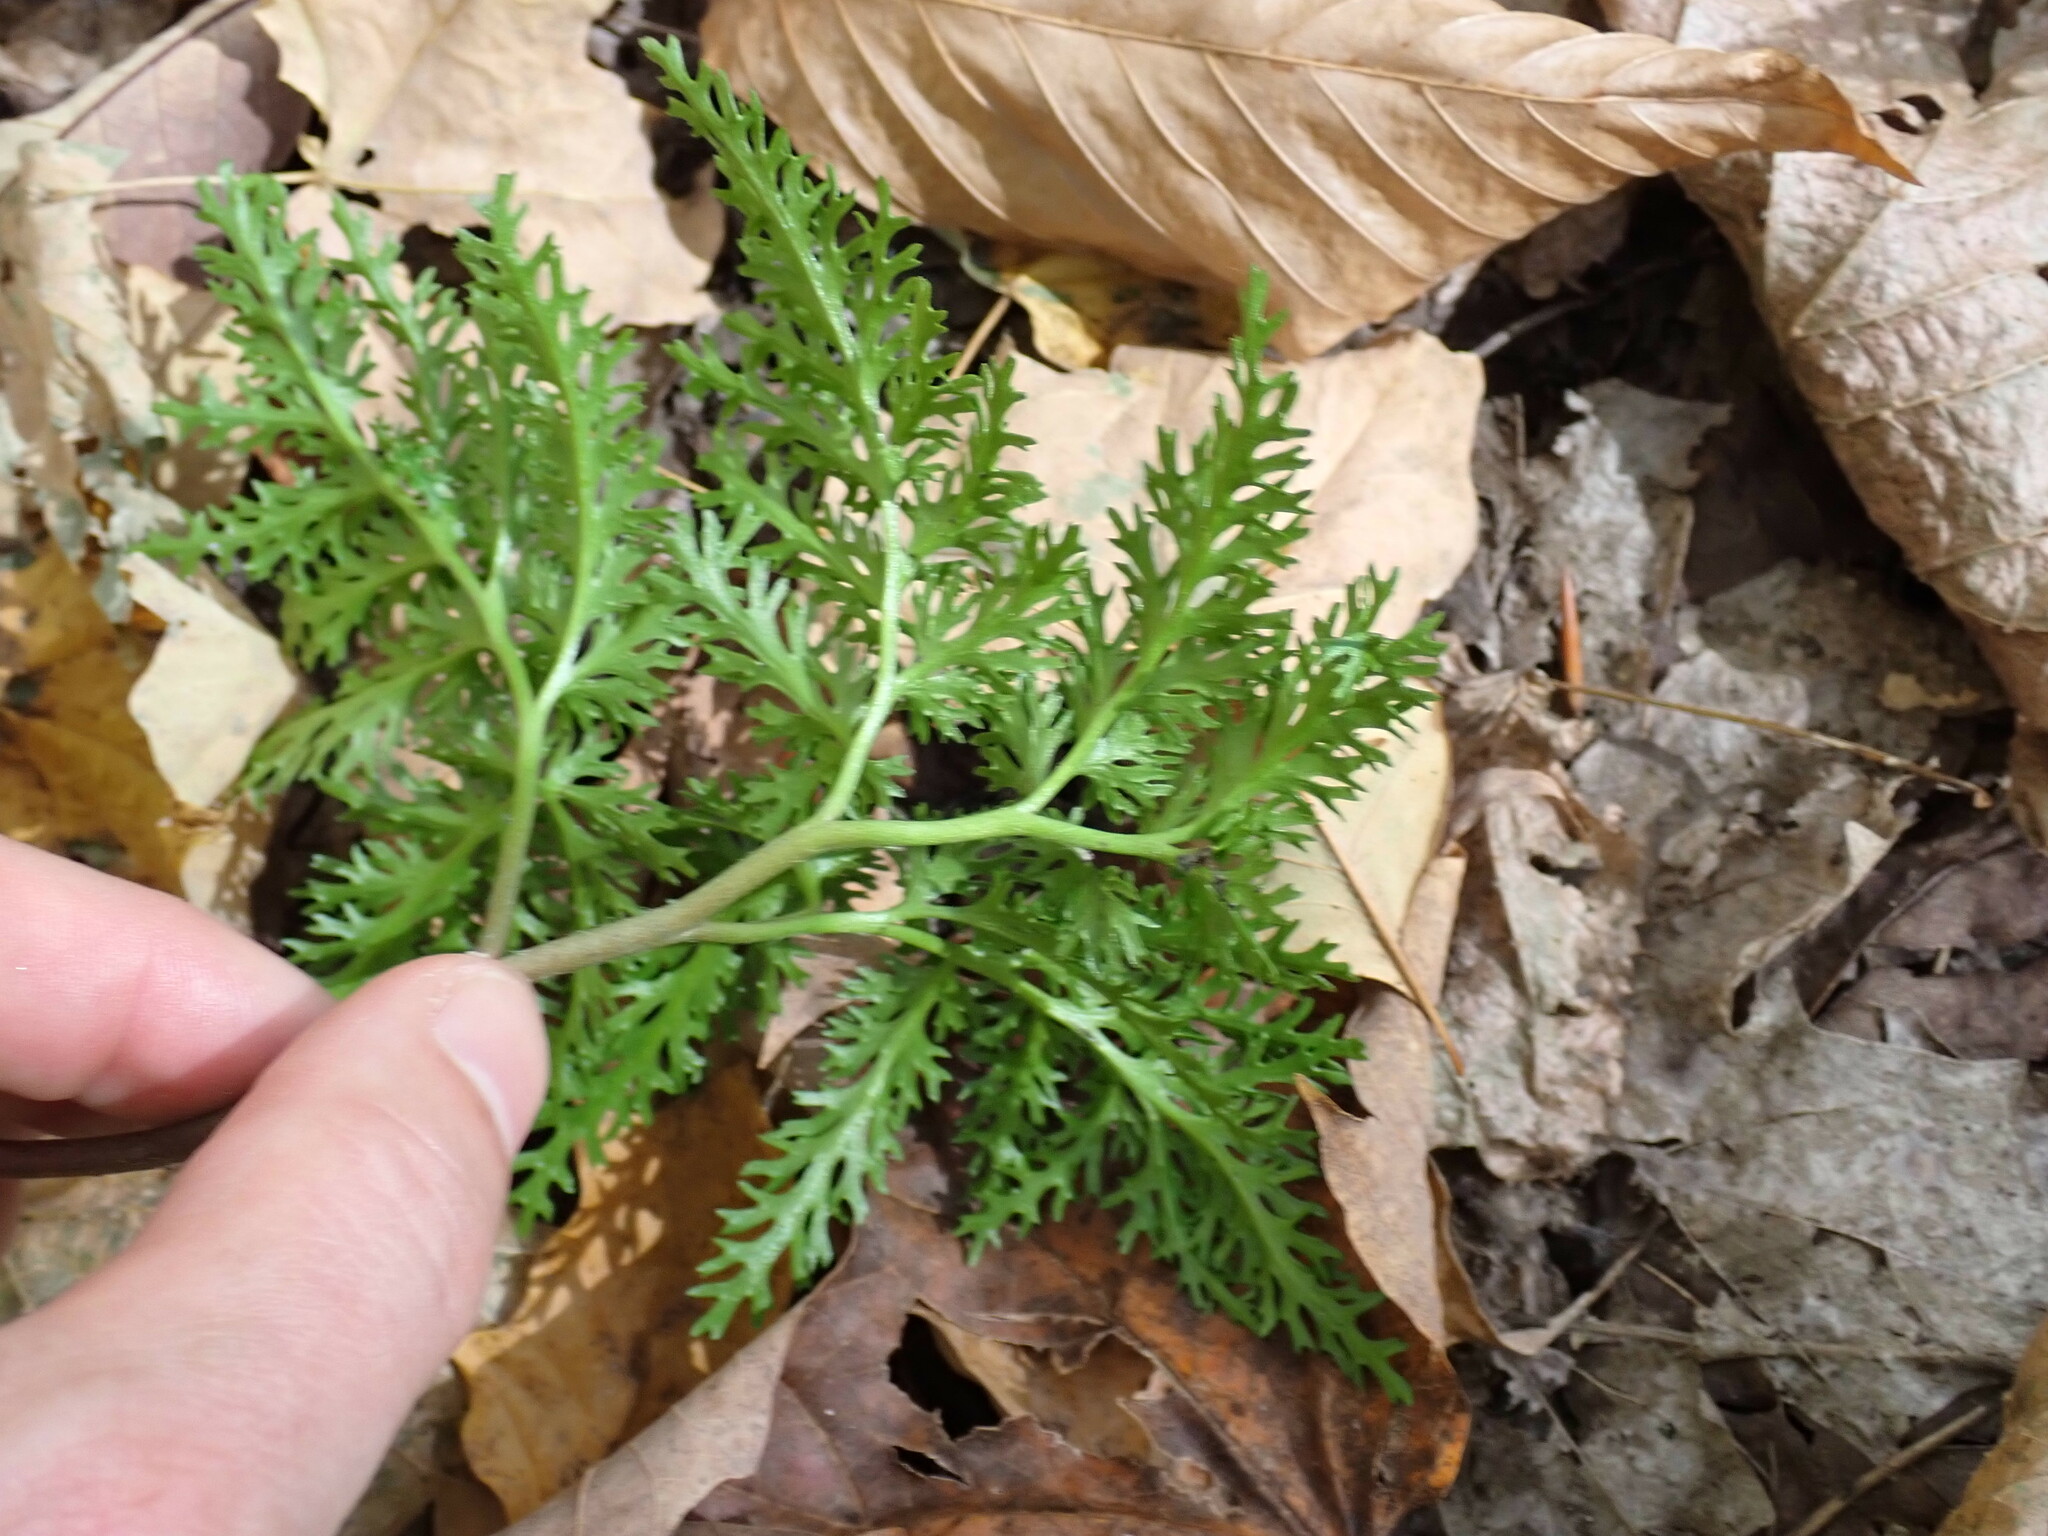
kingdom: Plantae
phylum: Tracheophyta
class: Polypodiopsida
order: Ophioglossales
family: Ophioglossaceae
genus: Sceptridium
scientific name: Sceptridium dissectum
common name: Cut-leaved grapefern
